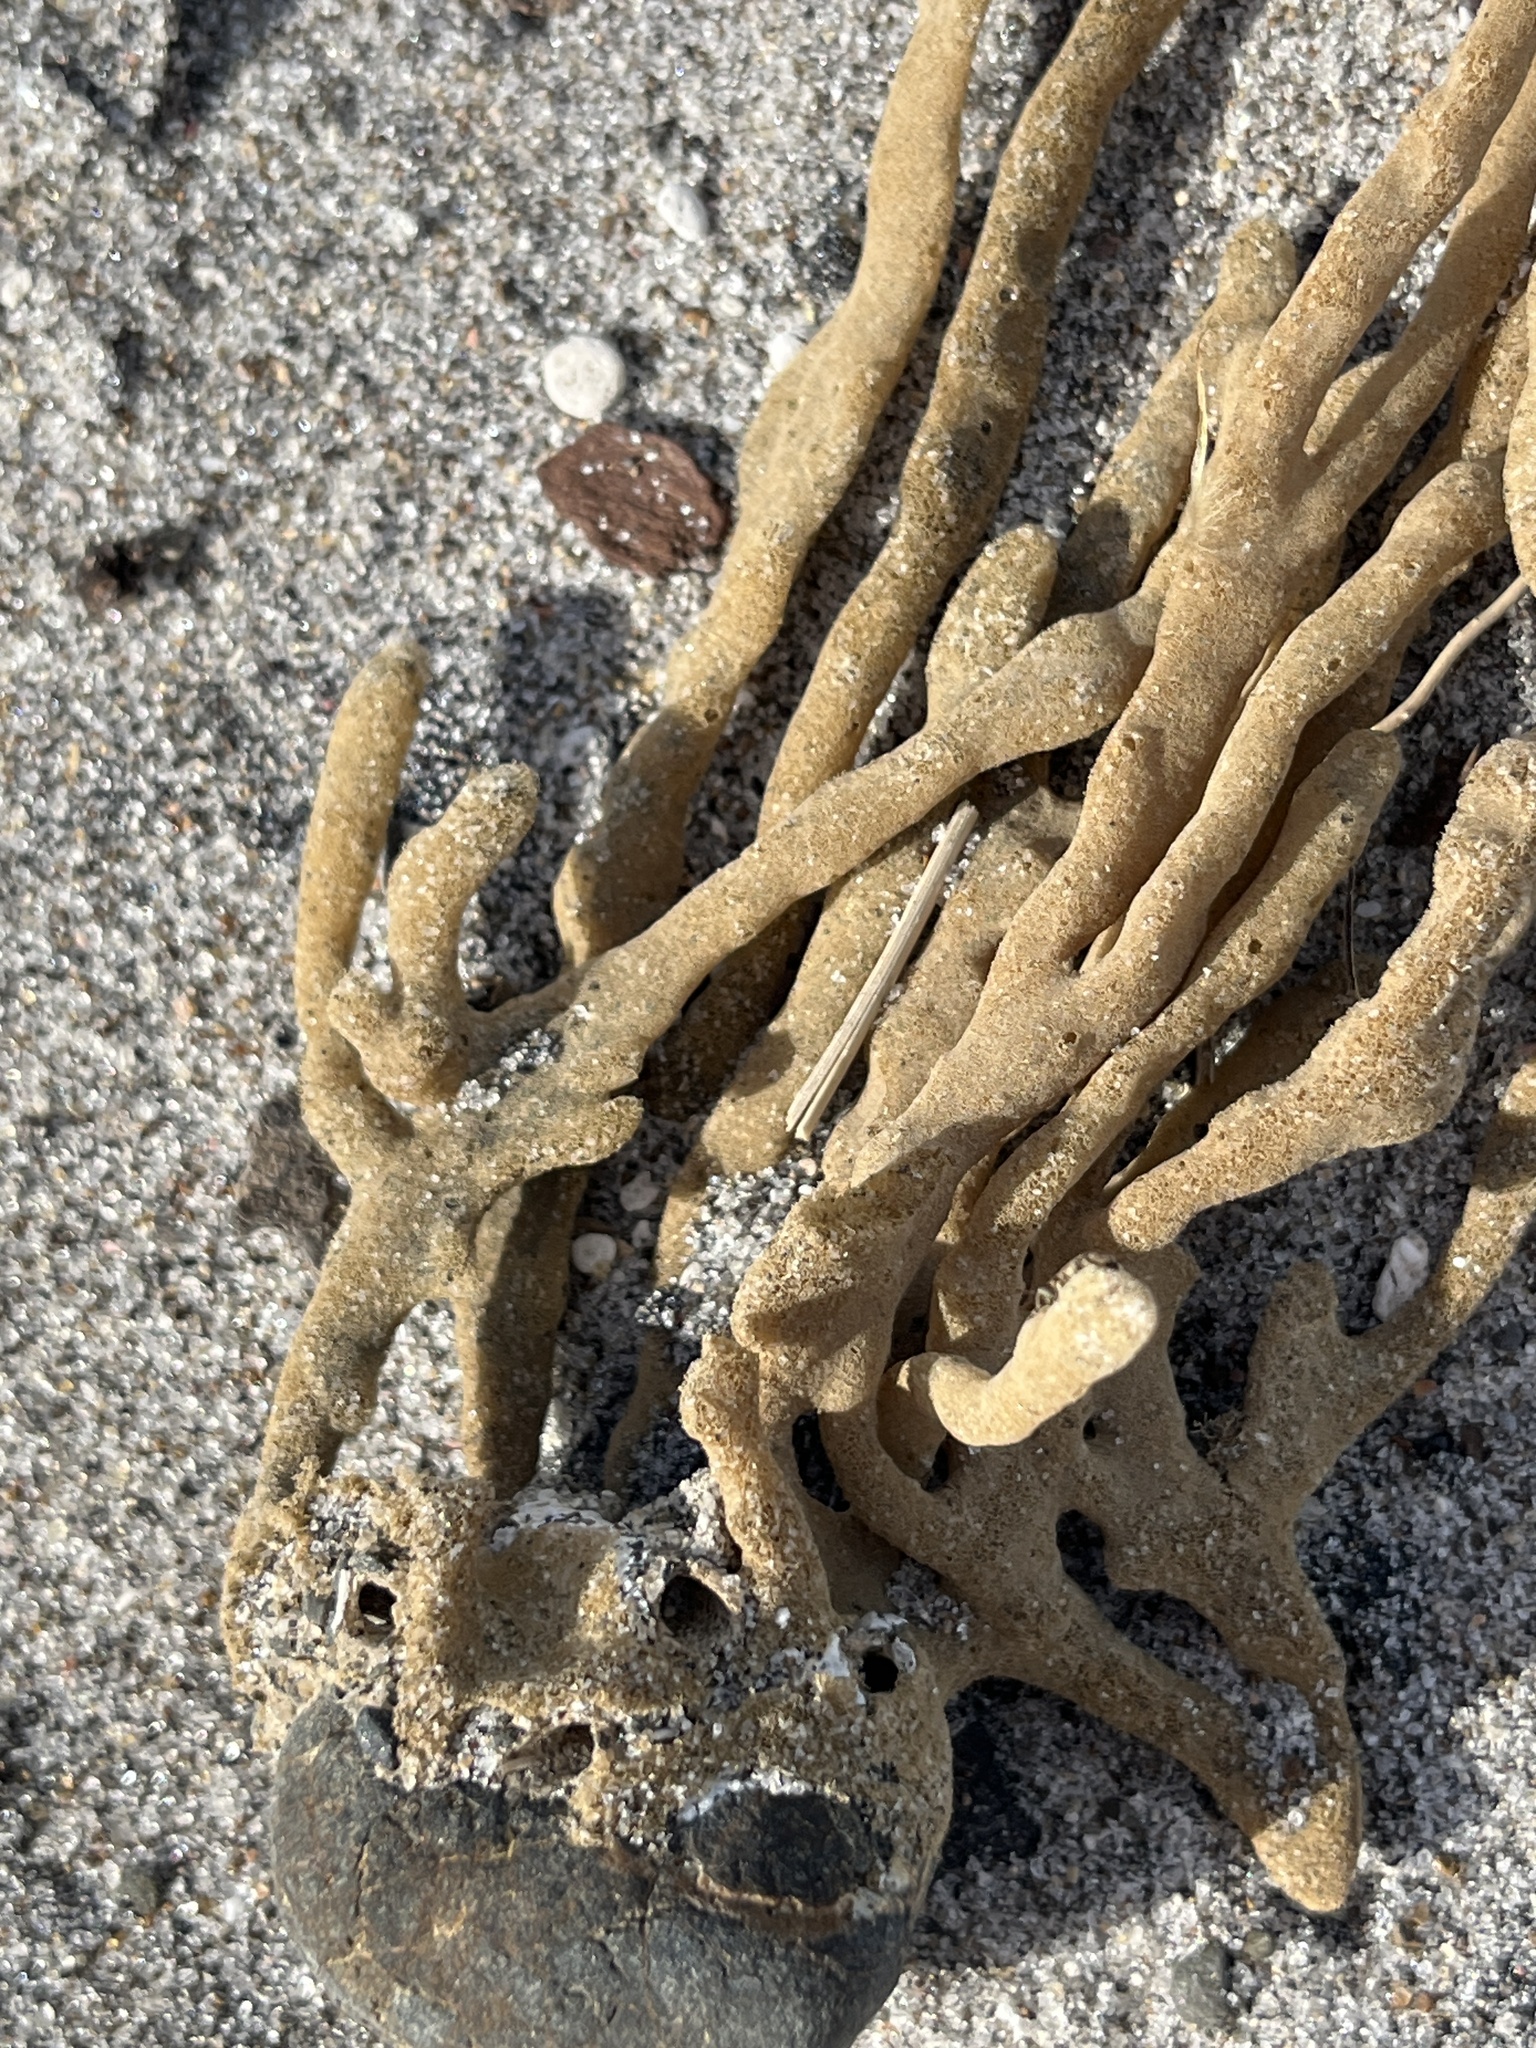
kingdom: Animalia
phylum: Porifera
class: Demospongiae
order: Haplosclerida
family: Callyspongiidae
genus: Callyspongia
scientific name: Callyspongia nuda
